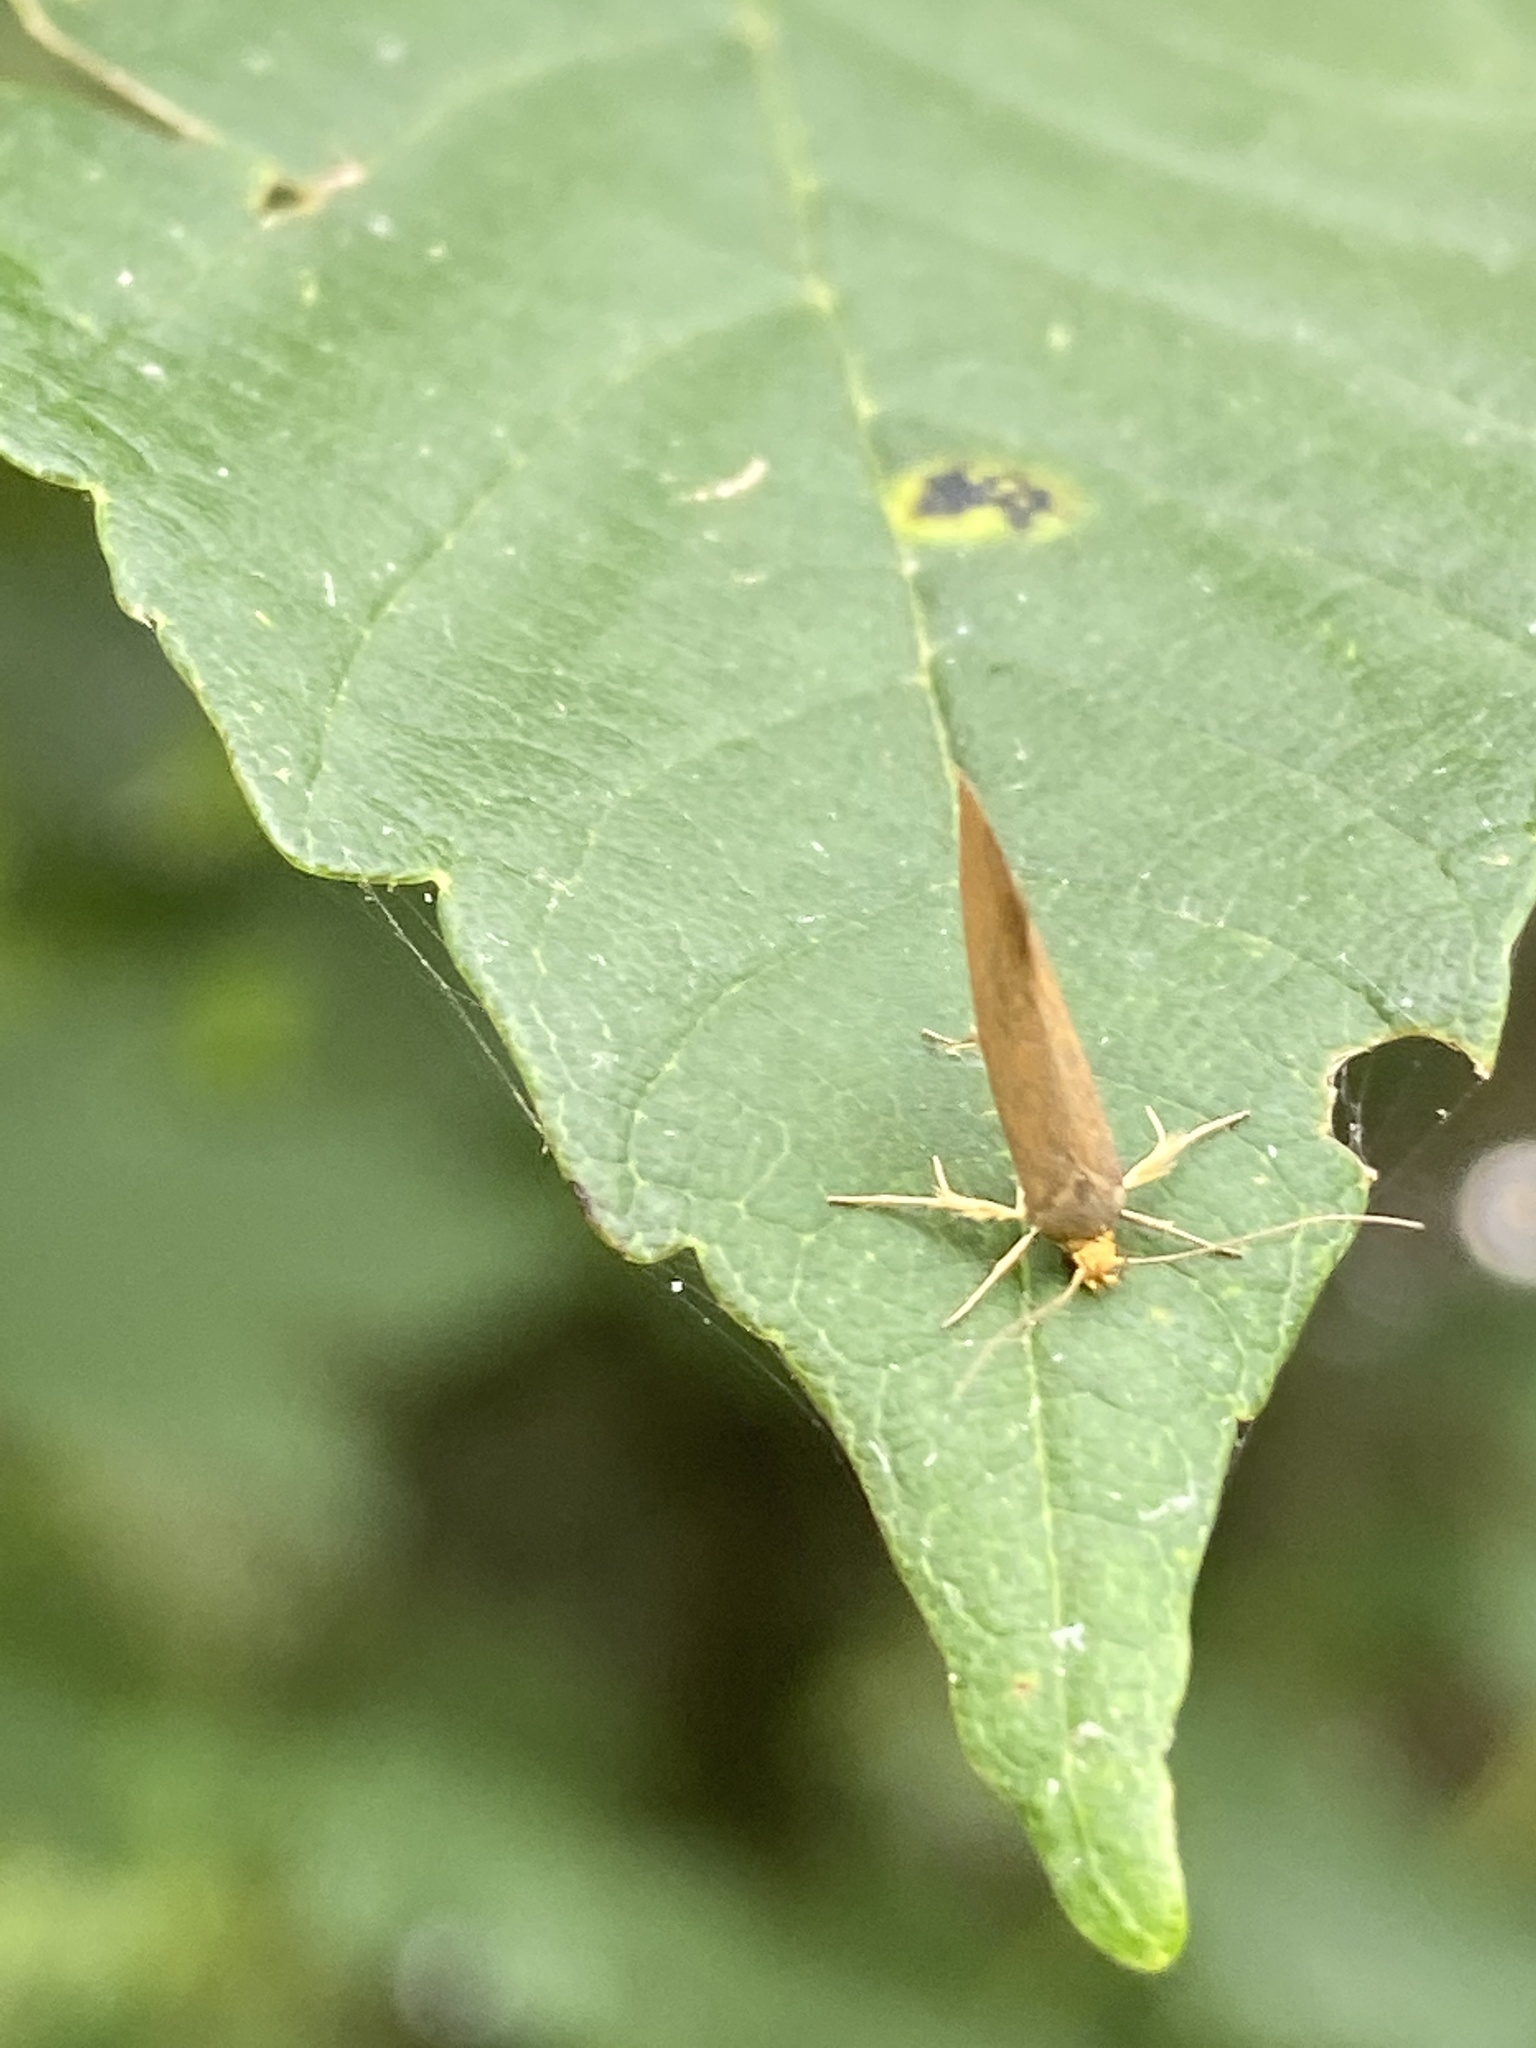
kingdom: Animalia
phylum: Arthropoda
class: Insecta
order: Lepidoptera
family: Oecophoridae
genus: Borkhausenia
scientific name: Borkhausenia Crassa unitella
